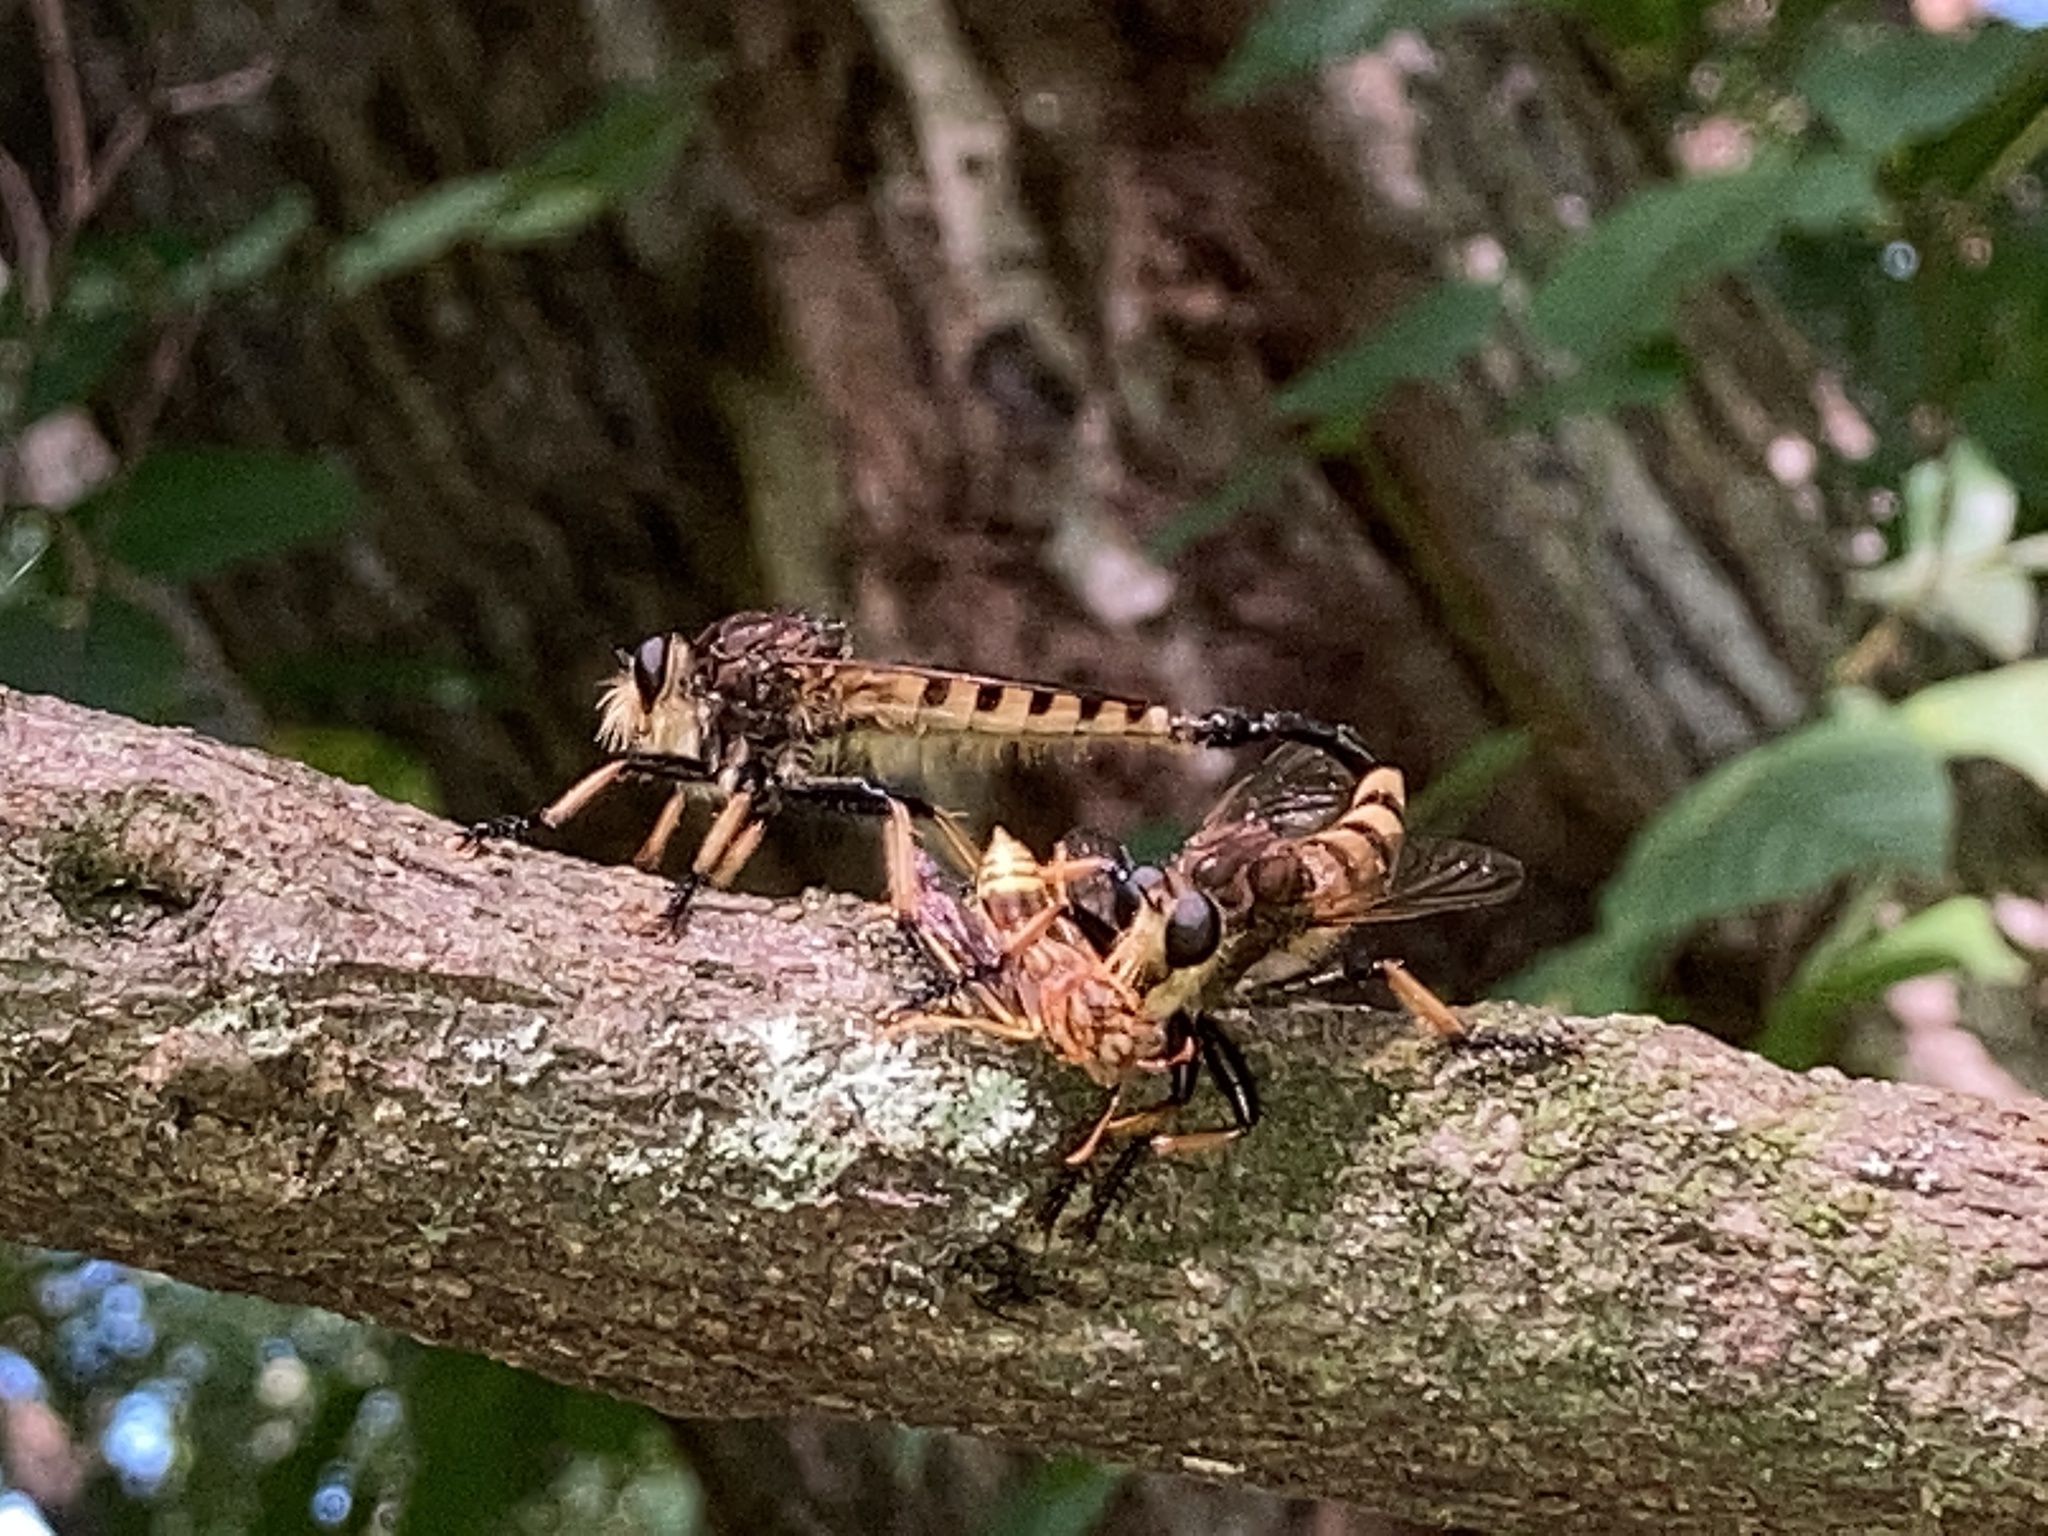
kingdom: Animalia
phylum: Arthropoda
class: Insecta
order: Diptera
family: Asilidae
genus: Promachus
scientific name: Promachus rufipes
